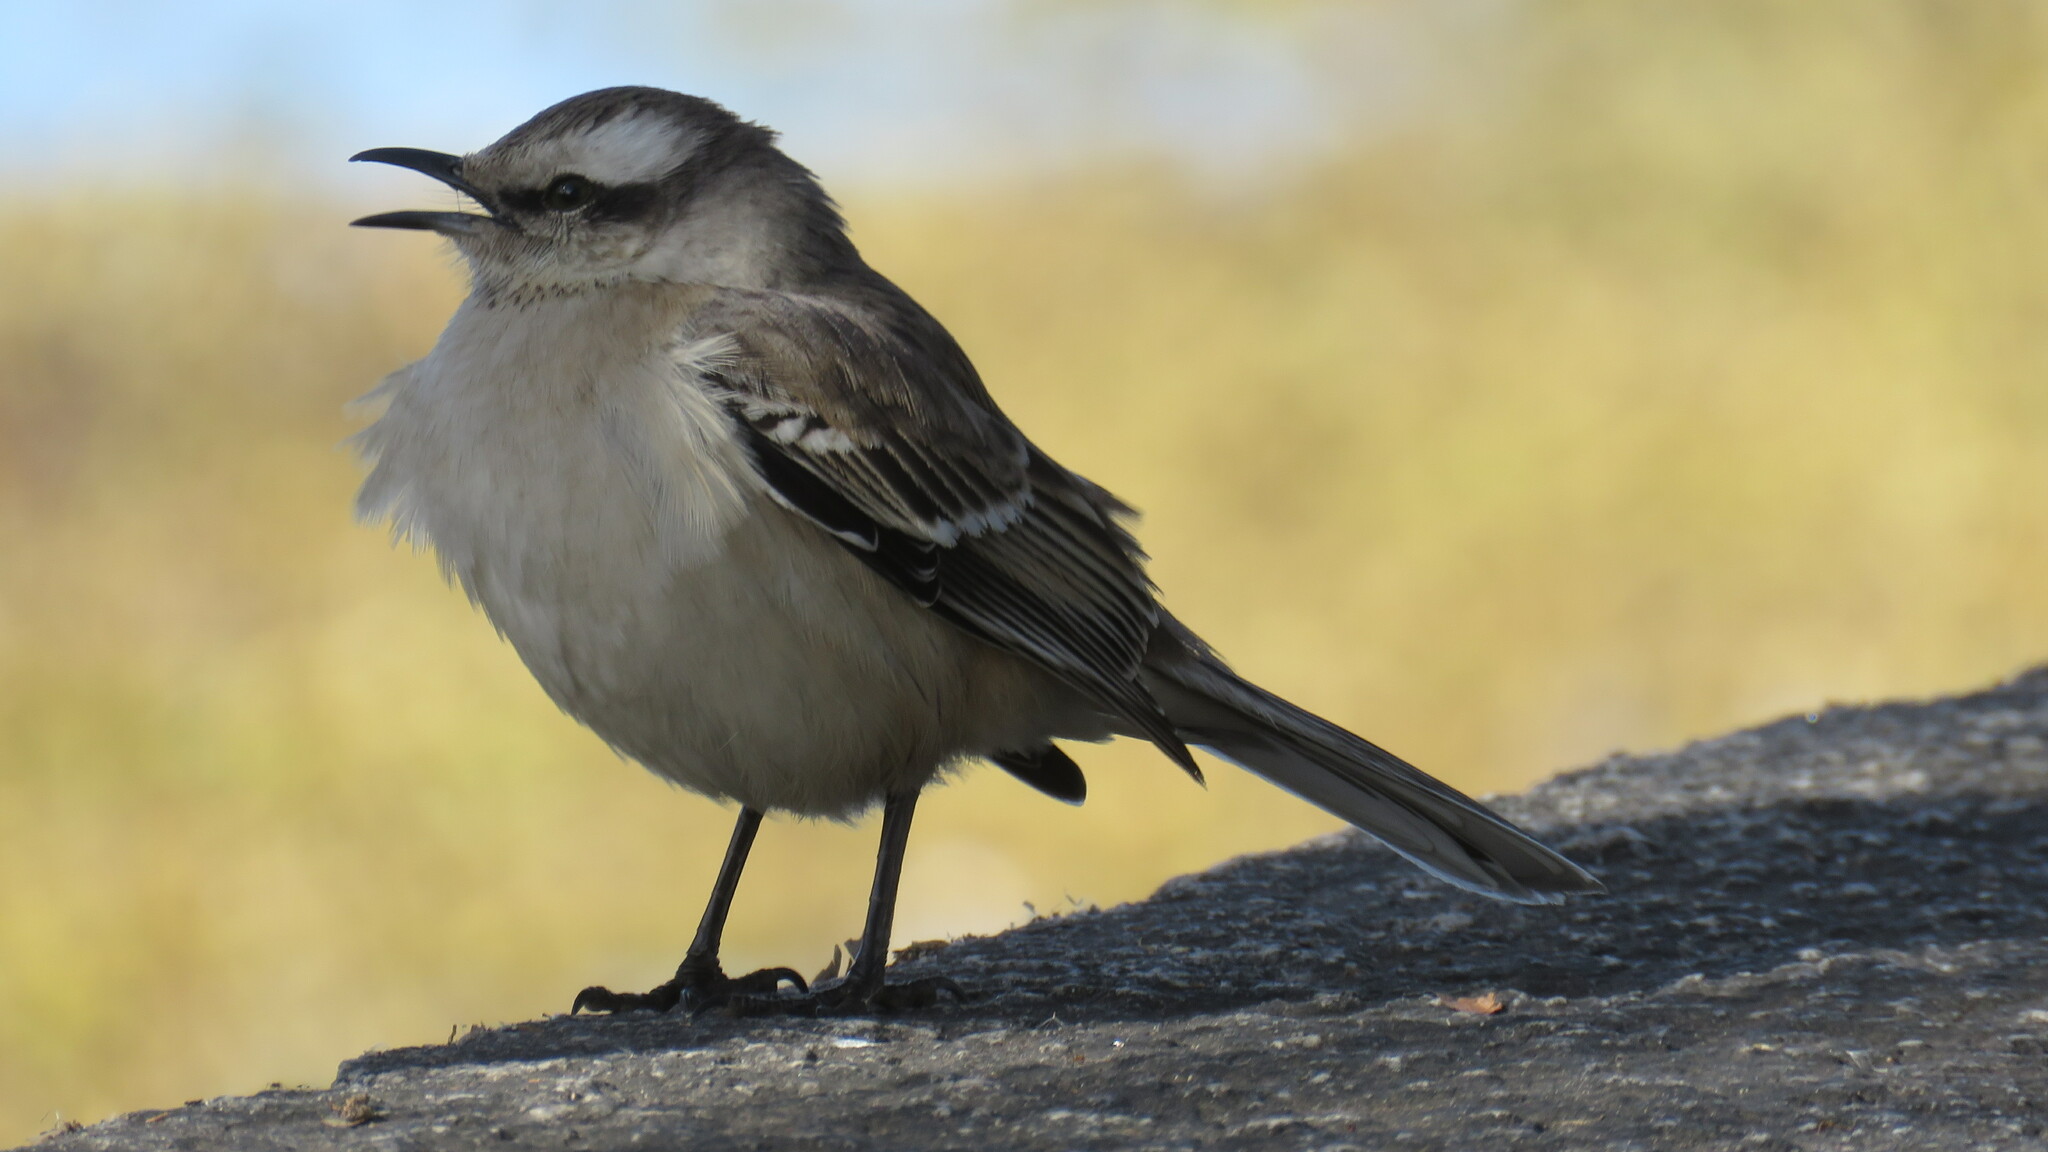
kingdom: Animalia
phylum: Chordata
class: Aves
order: Passeriformes
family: Mimidae
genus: Mimus
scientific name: Mimus saturninus
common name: Chalk-browed mockingbird
